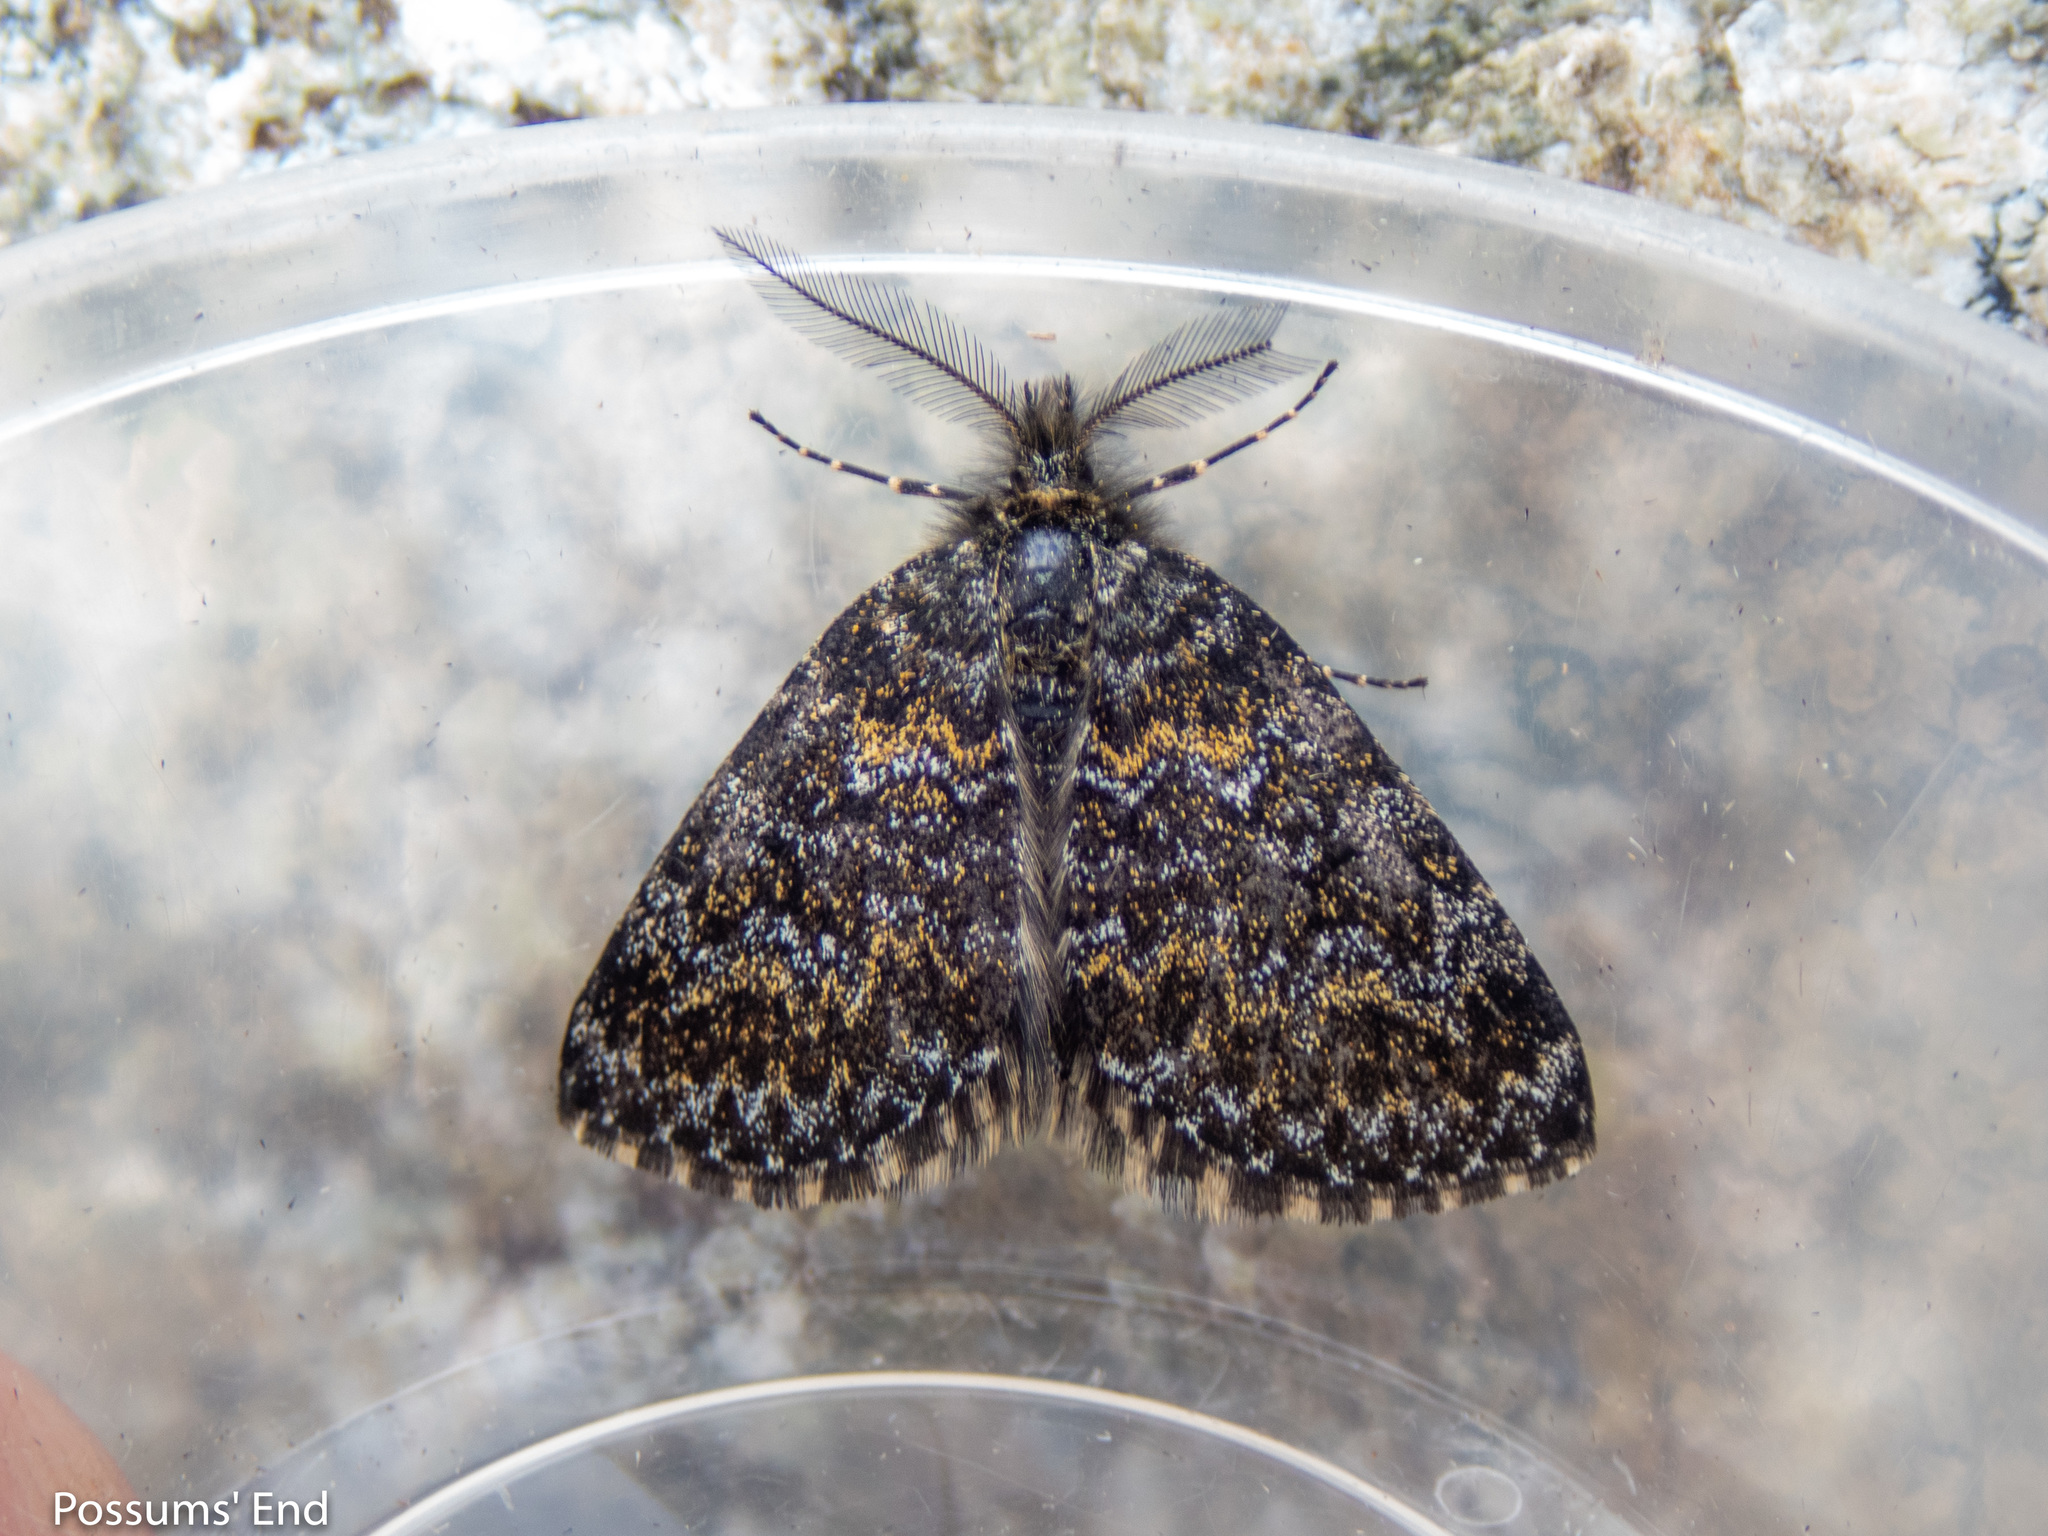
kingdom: Animalia
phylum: Arthropoda
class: Insecta
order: Lepidoptera
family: Geometridae
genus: Aponotoreas
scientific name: Aponotoreas orphnaea
